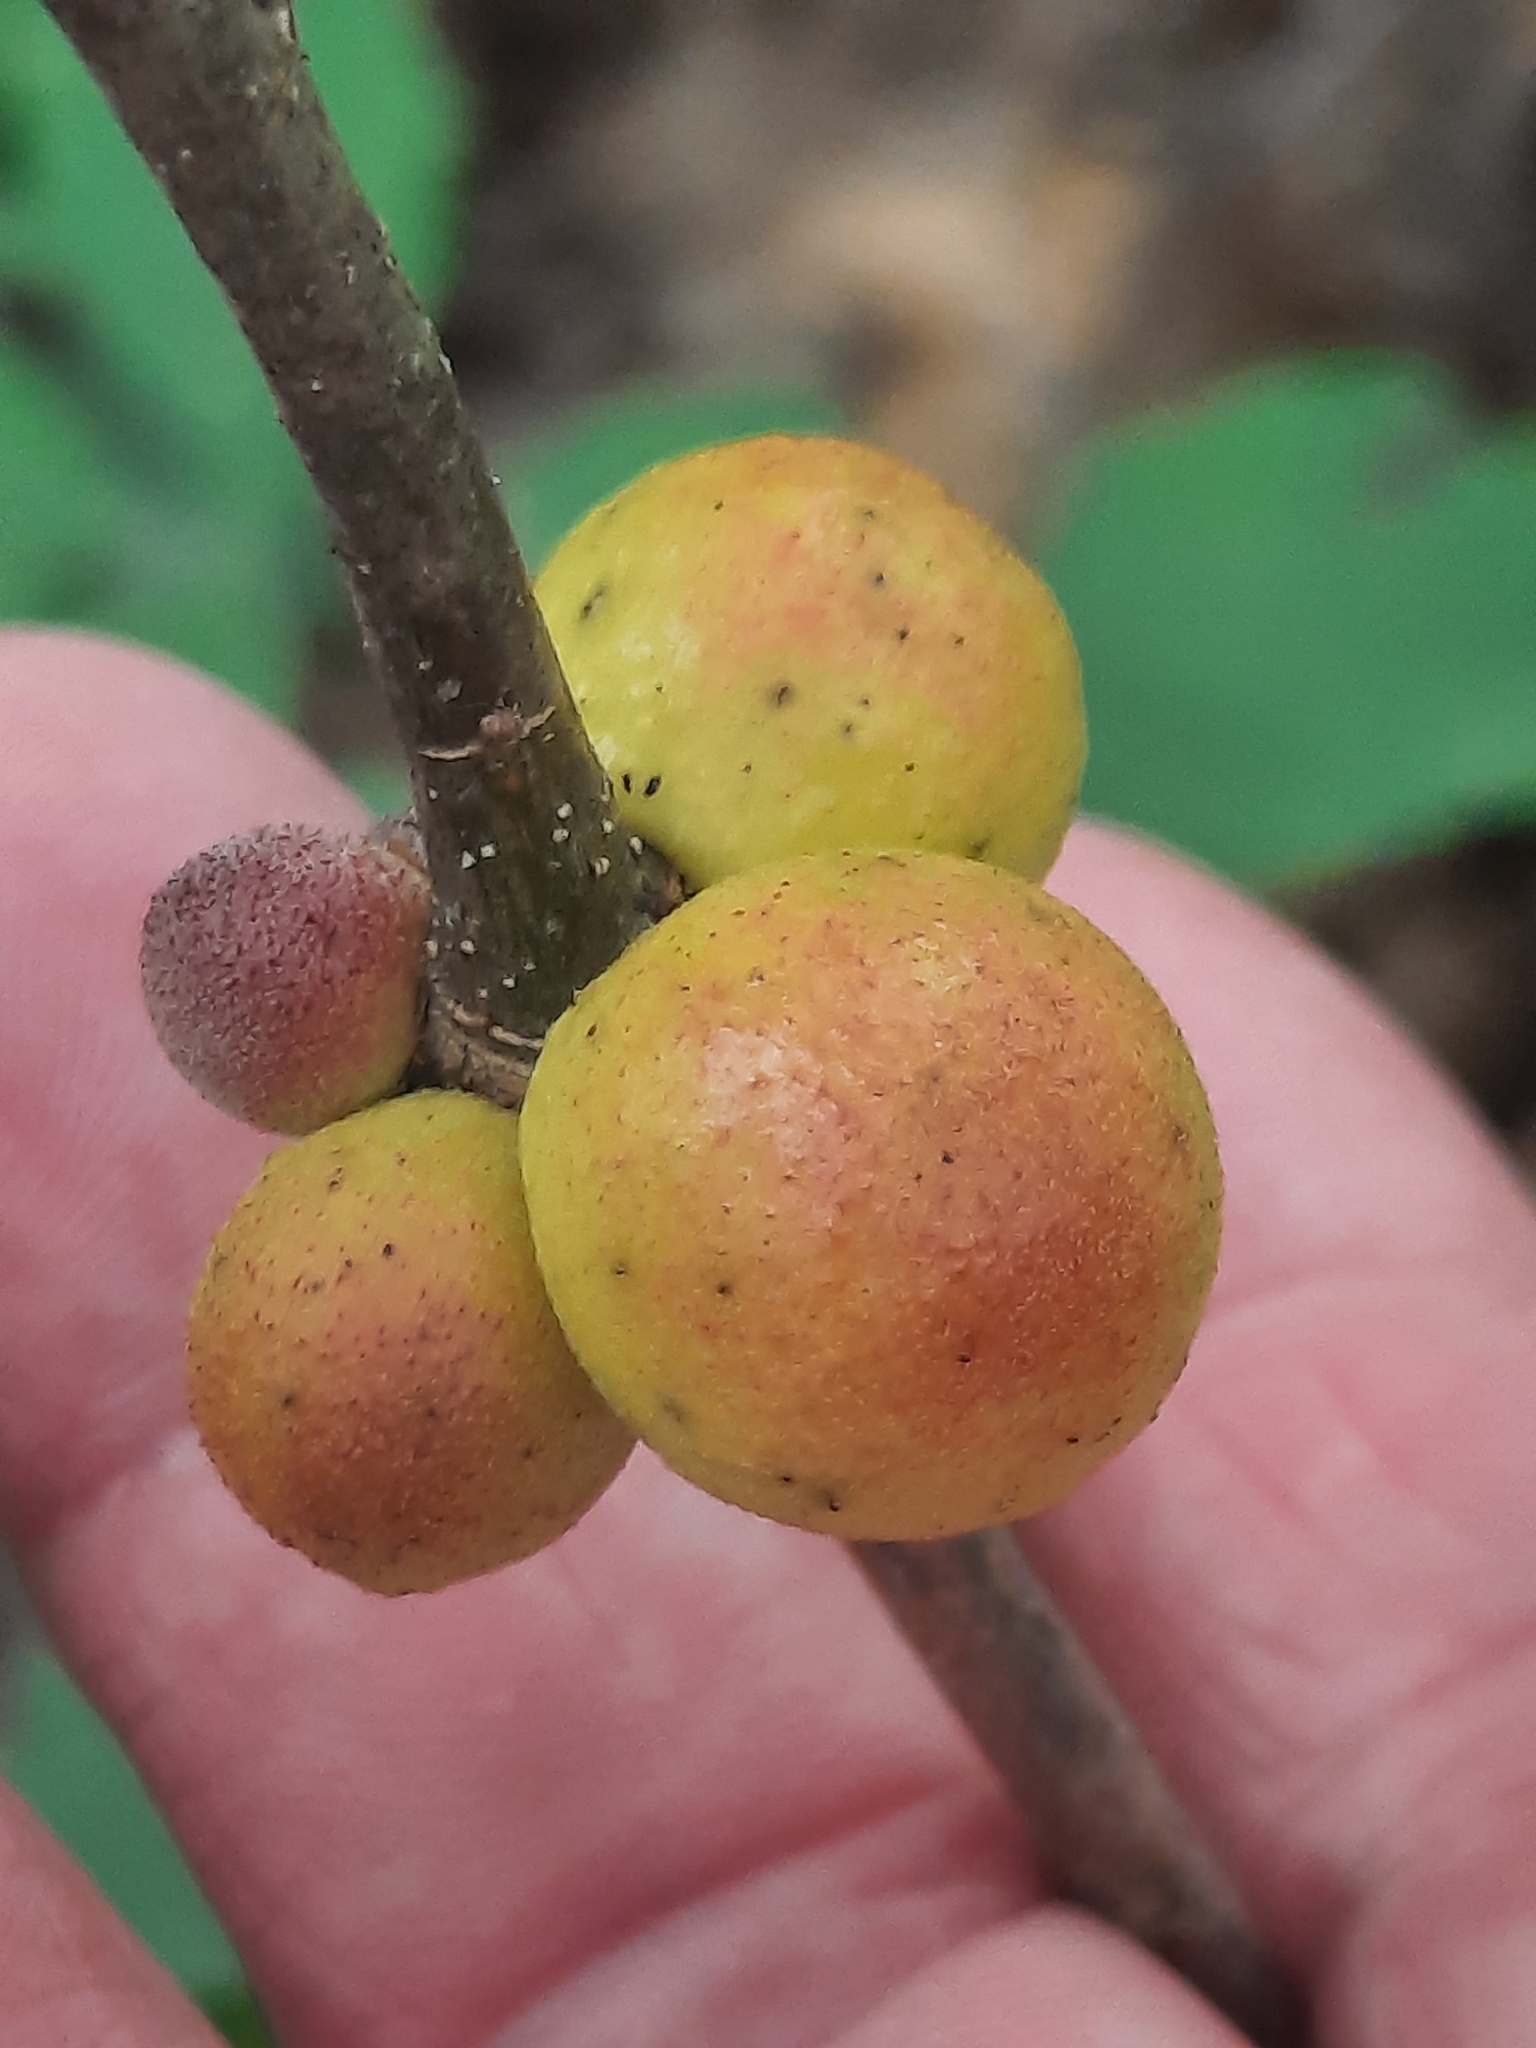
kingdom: Animalia
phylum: Arthropoda
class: Insecta
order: Hymenoptera
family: Cynipidae
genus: Disholcaspis
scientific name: Disholcaspis quercusglobulus
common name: Round bullet gall wasp
